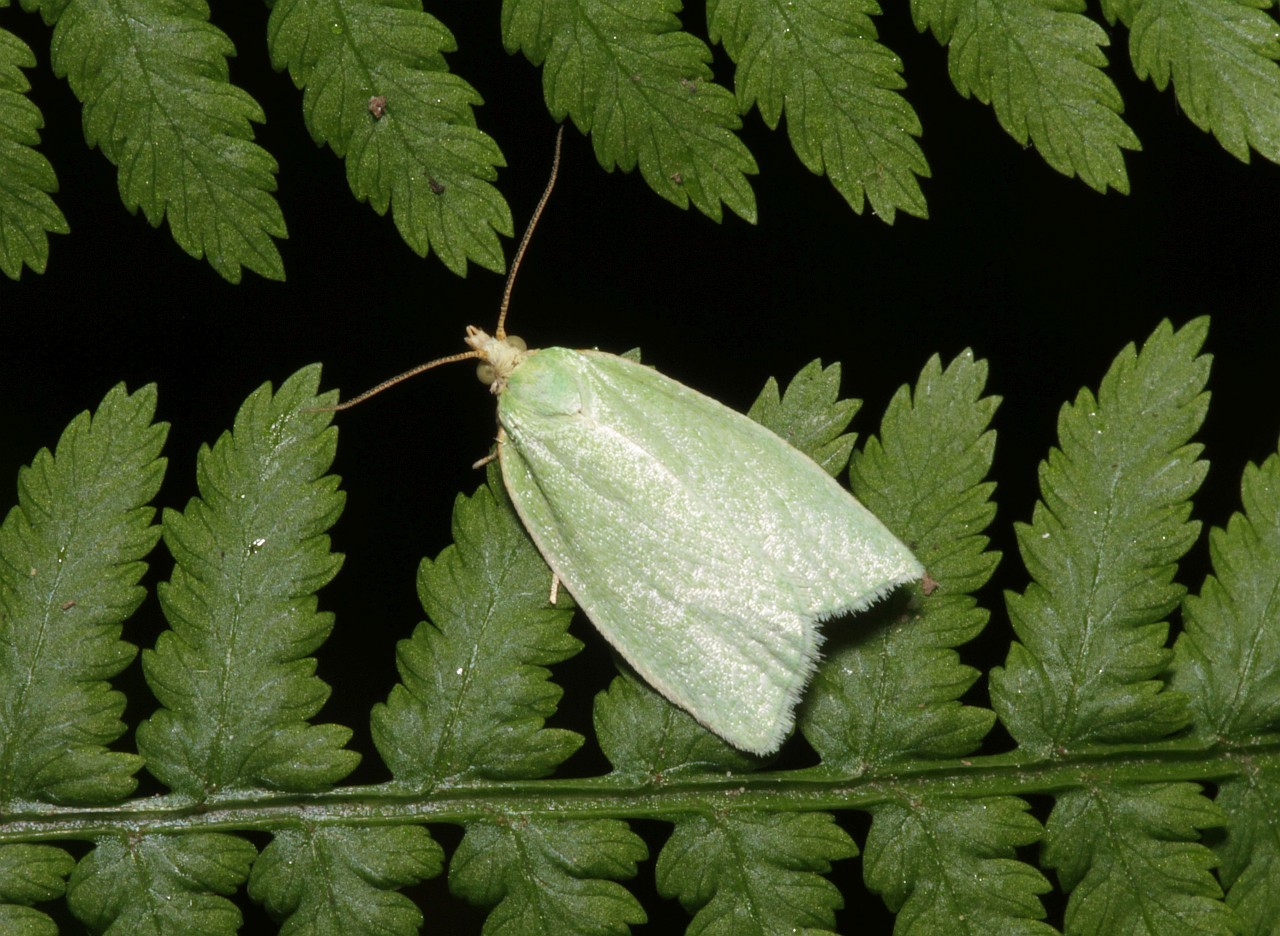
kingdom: Animalia
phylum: Arthropoda
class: Insecta
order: Lepidoptera
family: Tortricidae
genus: Tortrix
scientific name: Tortrix viridana
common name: Green oak tortrix
